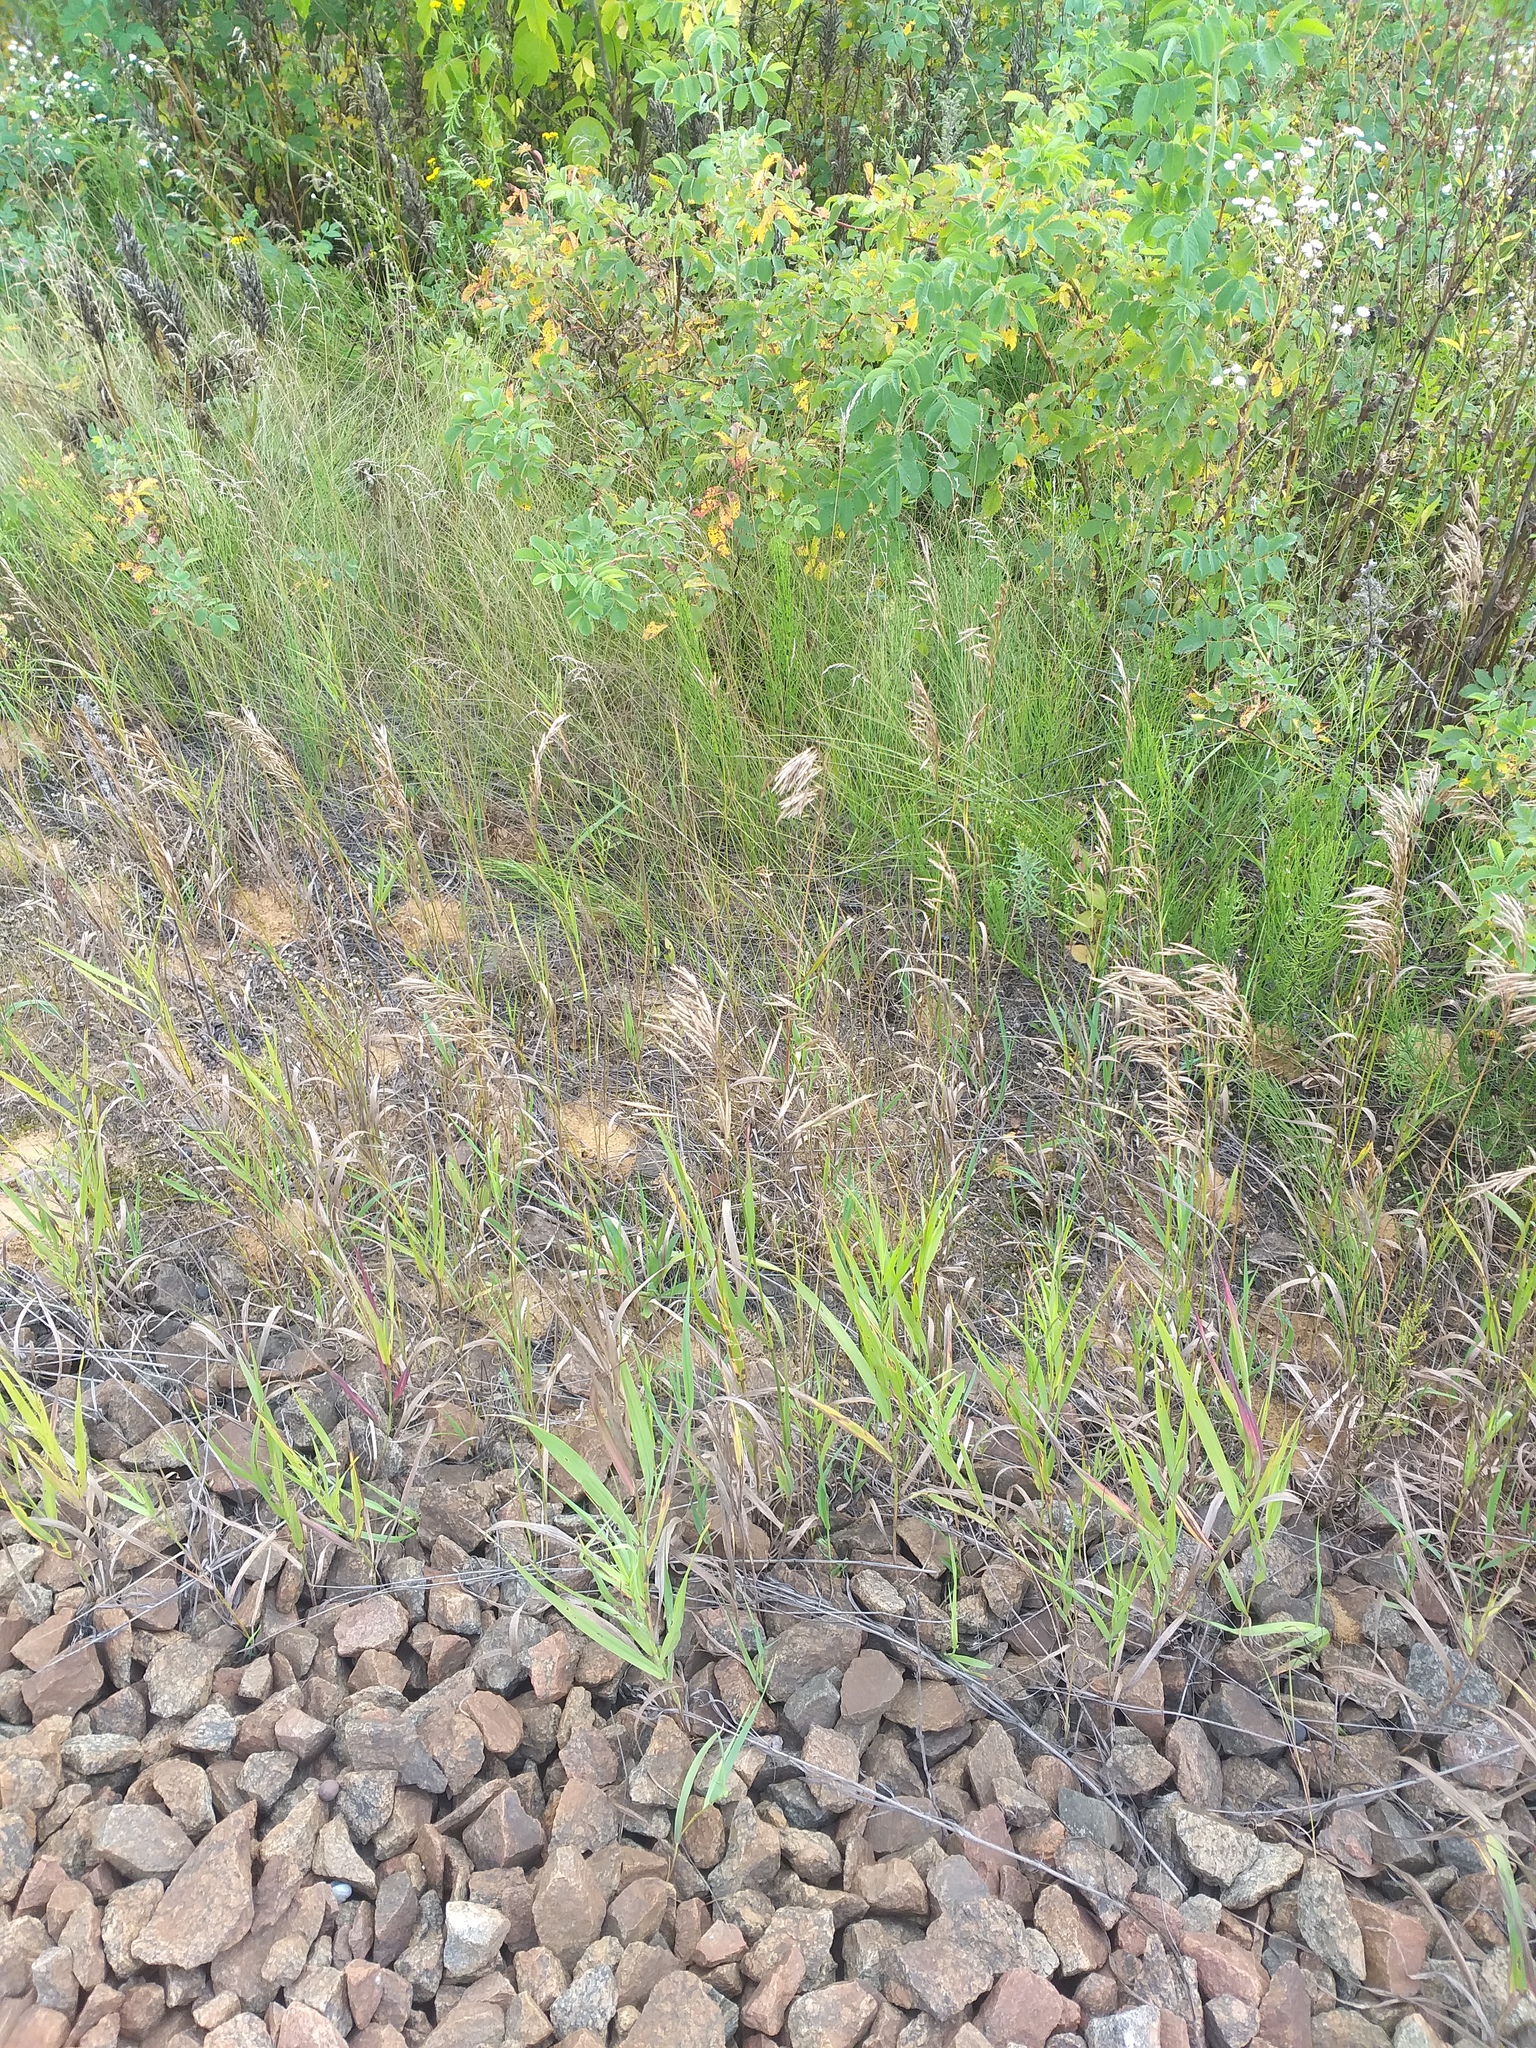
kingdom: Plantae
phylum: Tracheophyta
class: Liliopsida
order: Poales
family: Poaceae
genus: Bromus
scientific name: Bromus inermis
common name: Smooth brome
